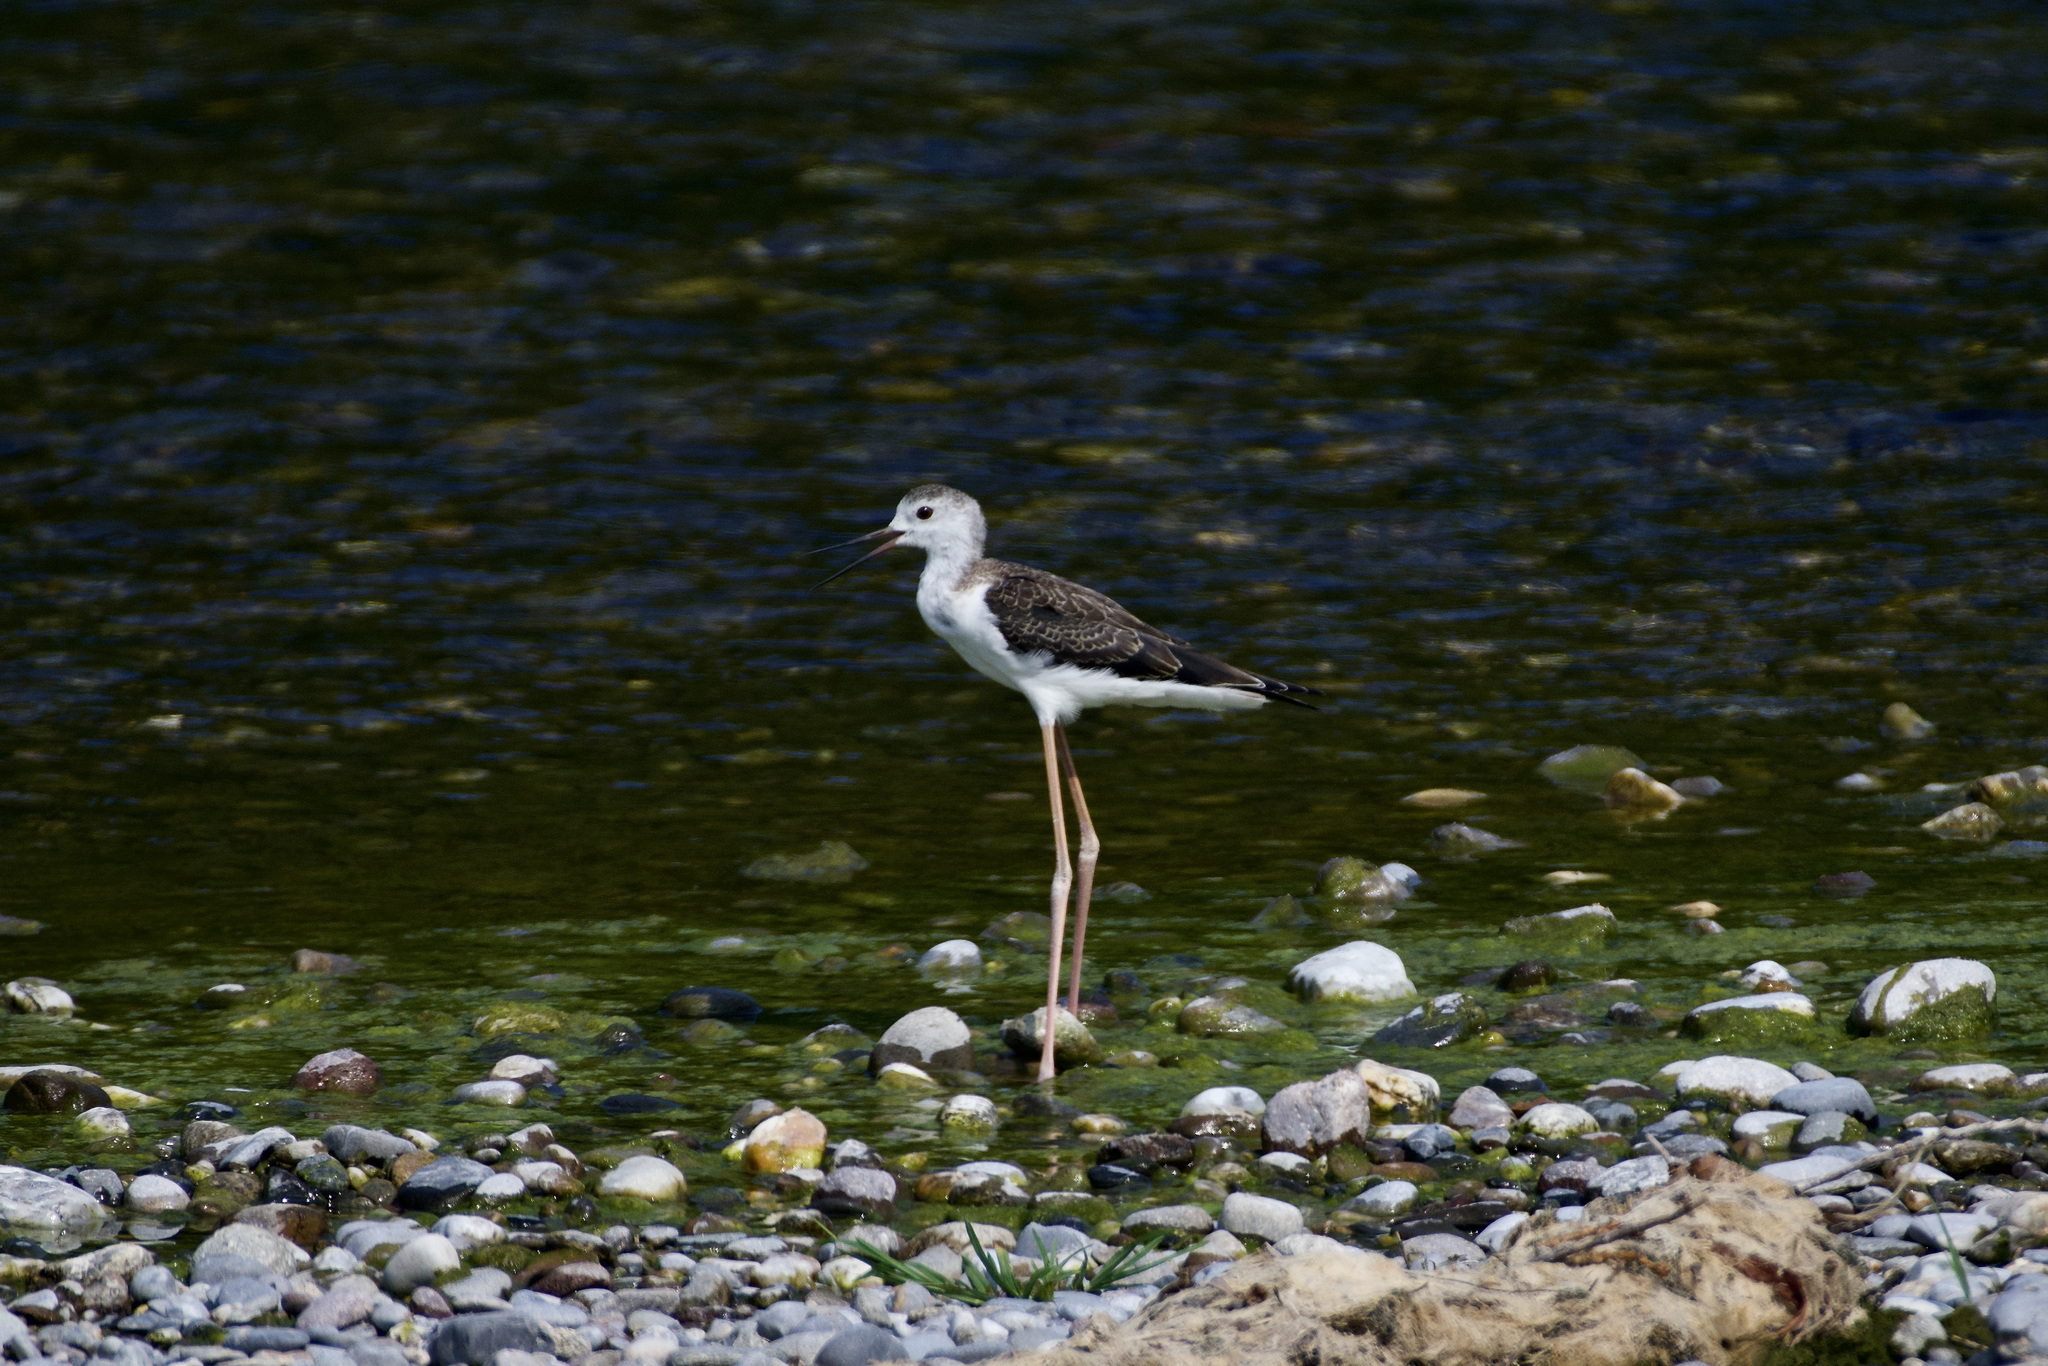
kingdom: Animalia
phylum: Chordata
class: Aves
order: Charadriiformes
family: Recurvirostridae
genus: Himantopus
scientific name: Himantopus himantopus
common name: Black-winged stilt
